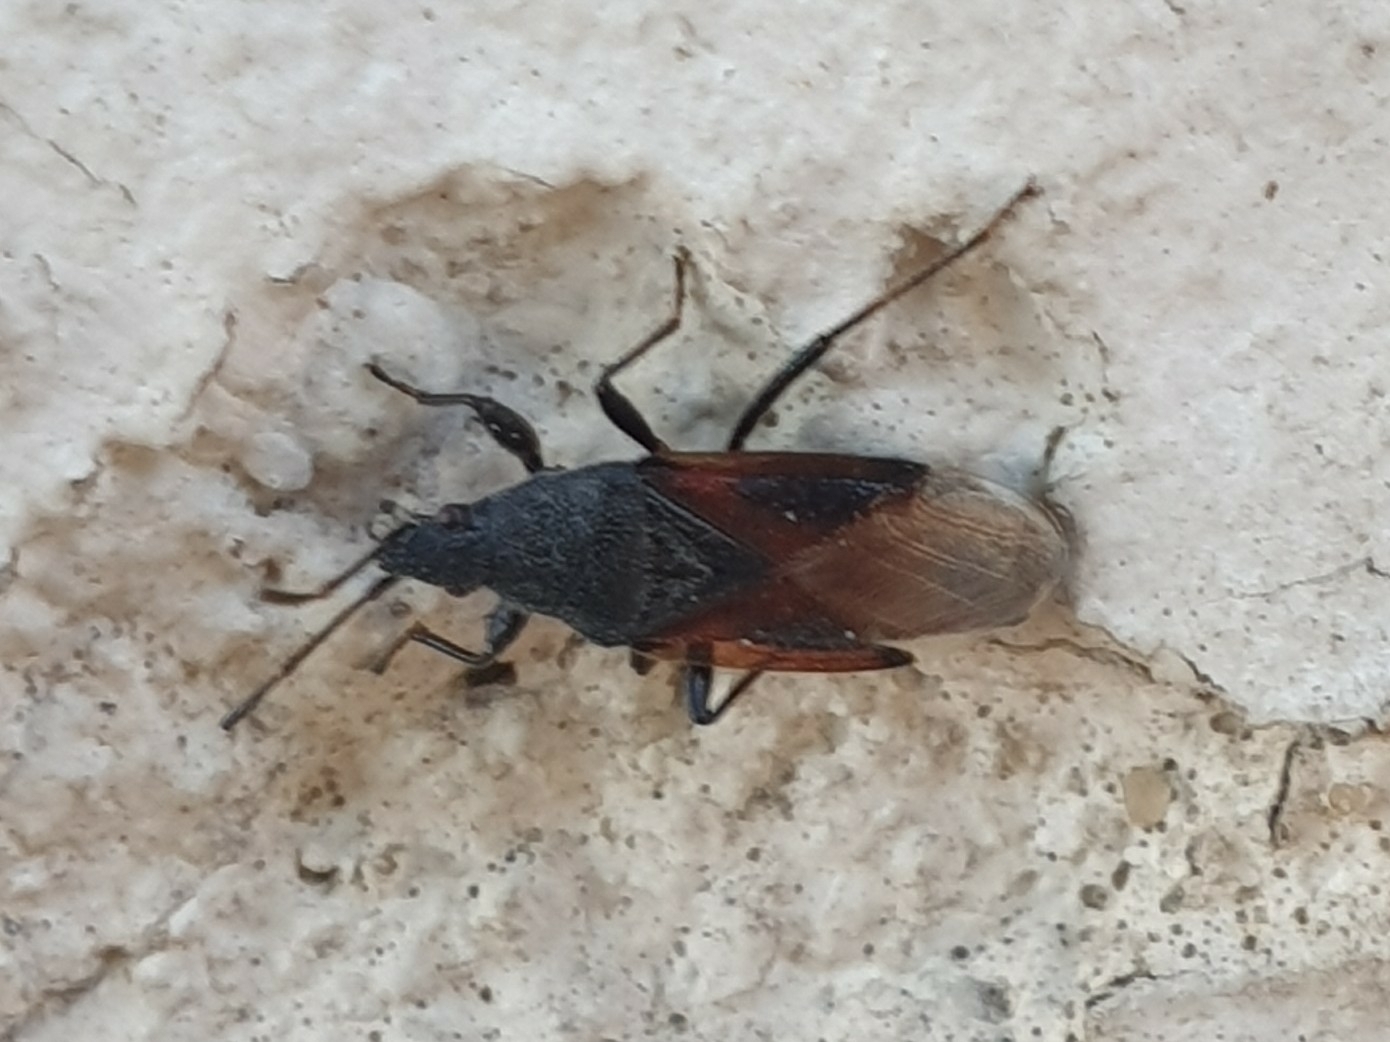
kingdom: Animalia
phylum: Arthropoda
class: Insecta
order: Hemiptera
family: Oxycarenidae
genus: Oxycarenus
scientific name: Oxycarenus lavaterae
